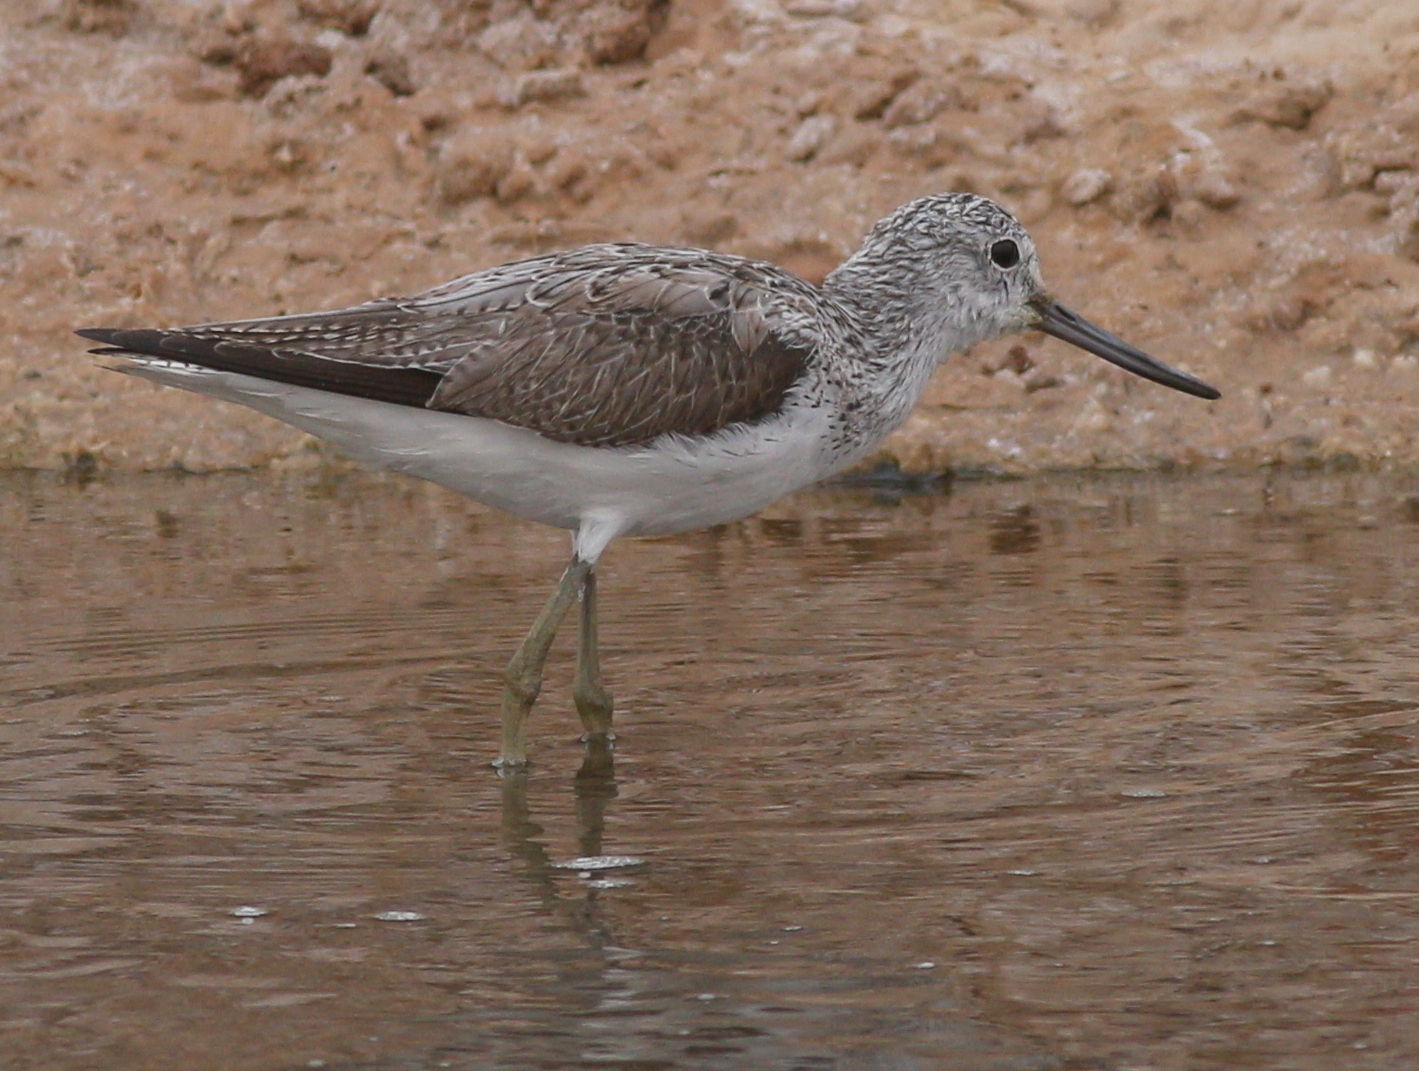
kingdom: Animalia
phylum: Chordata
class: Aves
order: Charadriiformes
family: Scolopacidae
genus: Tringa
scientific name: Tringa nebularia
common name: Common greenshank
